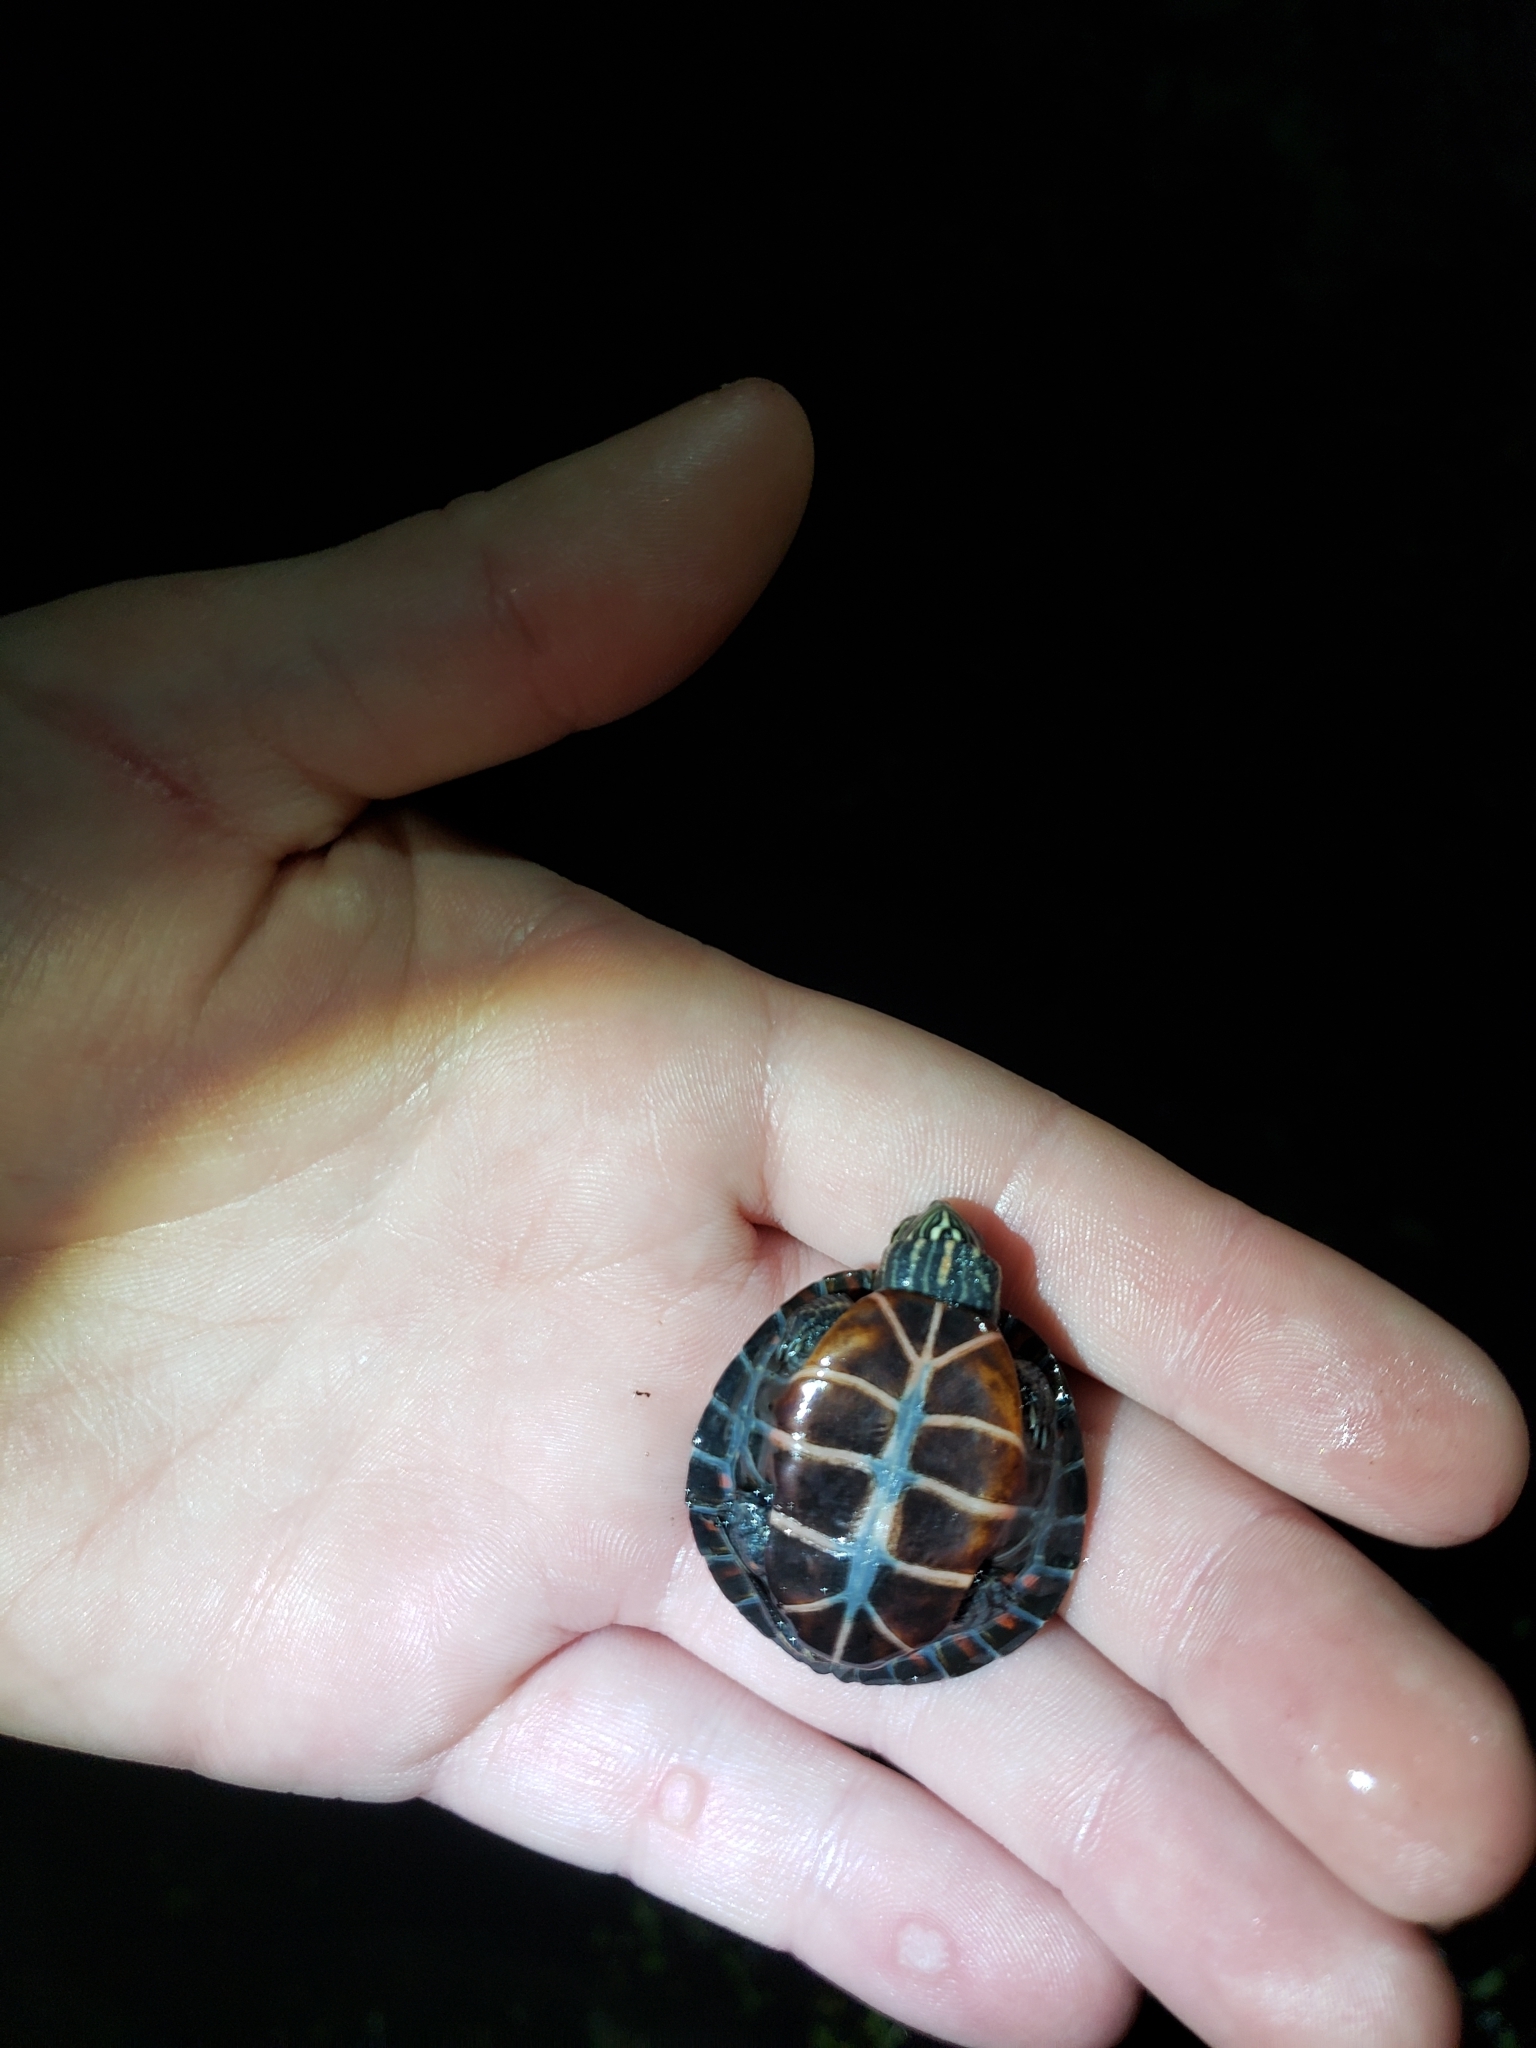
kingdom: Animalia
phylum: Chordata
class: Testudines
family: Emydidae
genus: Chrysemys
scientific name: Chrysemys picta
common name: Painted turtle
